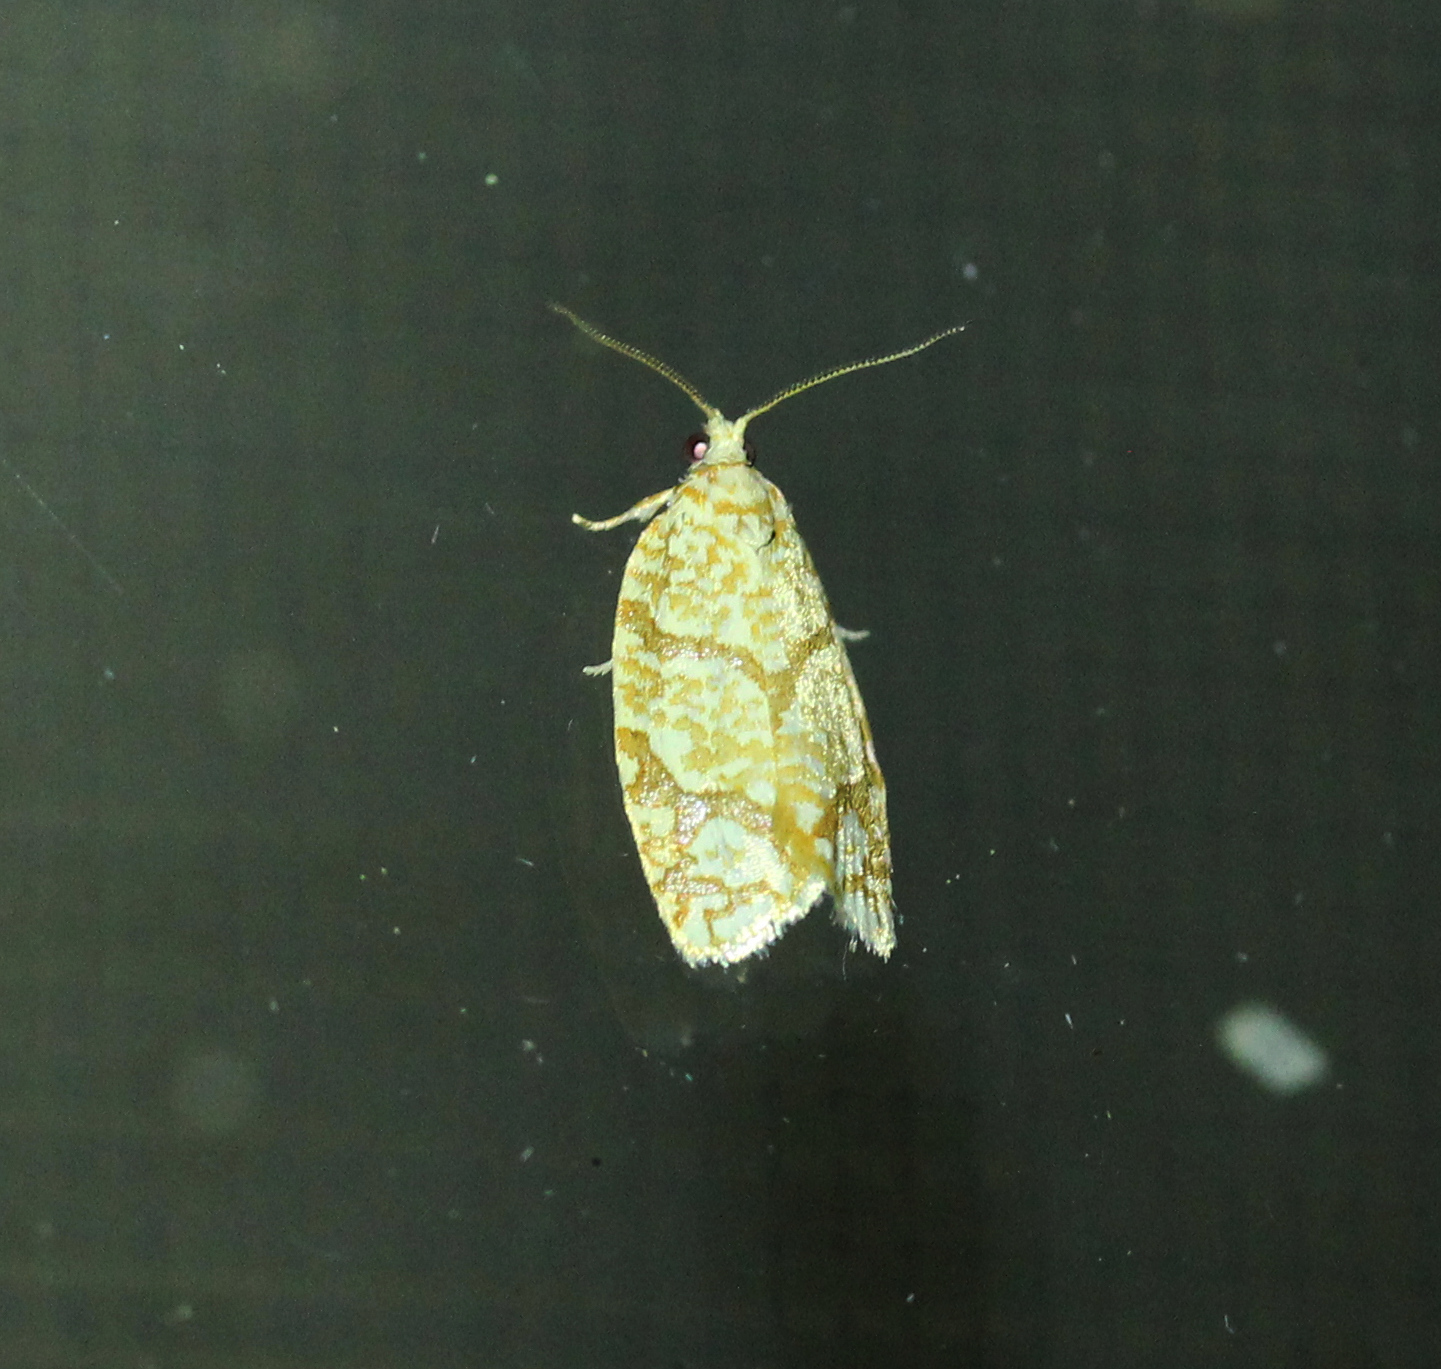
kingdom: Animalia
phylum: Arthropoda
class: Insecta
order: Lepidoptera
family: Tortricidae
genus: Argyrotaenia
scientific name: Argyrotaenia quercifoliana
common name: Yellow-winged oak leafroller moth
